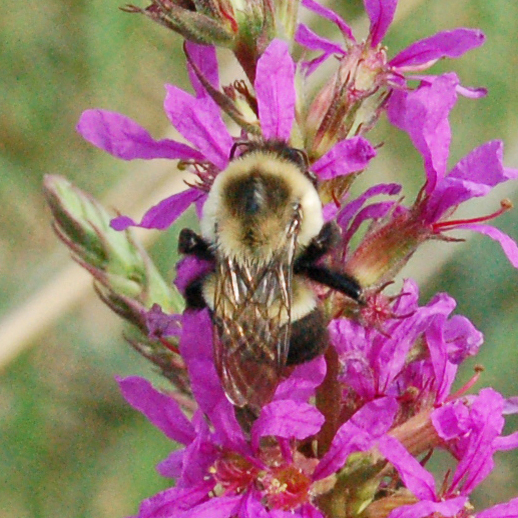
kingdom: Animalia
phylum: Arthropoda
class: Insecta
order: Hymenoptera
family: Apidae
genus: Bombus
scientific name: Bombus impatiens
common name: Common eastern bumble bee
